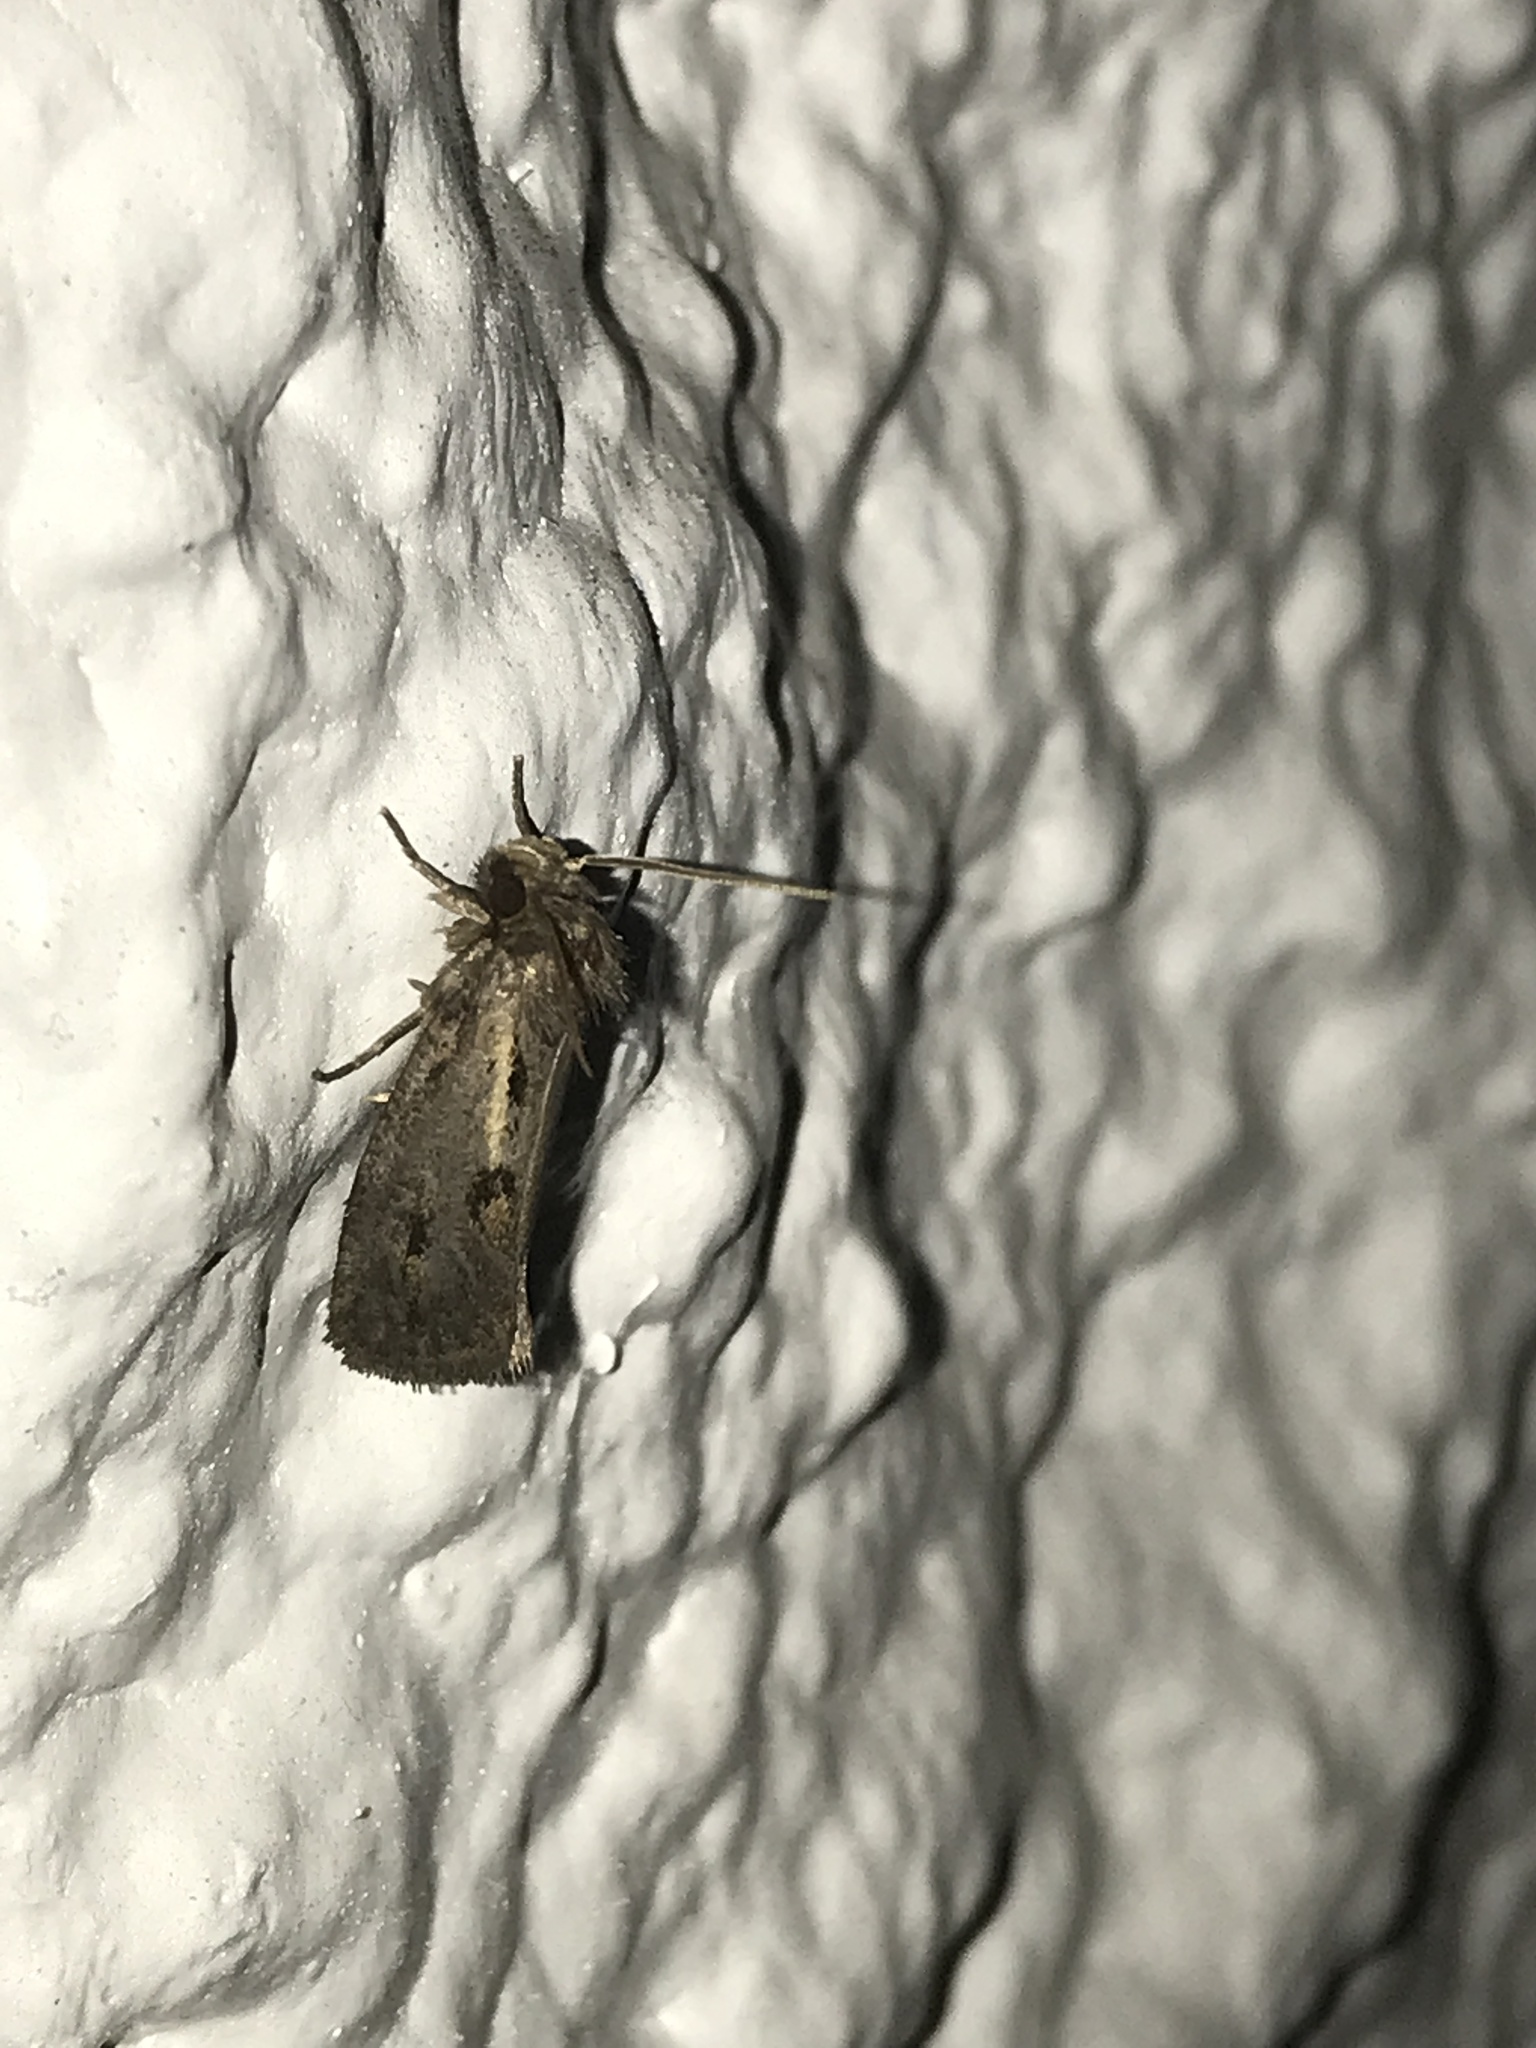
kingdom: Animalia
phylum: Arthropoda
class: Insecta
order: Lepidoptera
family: Tineidae
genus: Acrolophus
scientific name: Acrolophus popeanella
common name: Clemens' grass tubeworm moth
